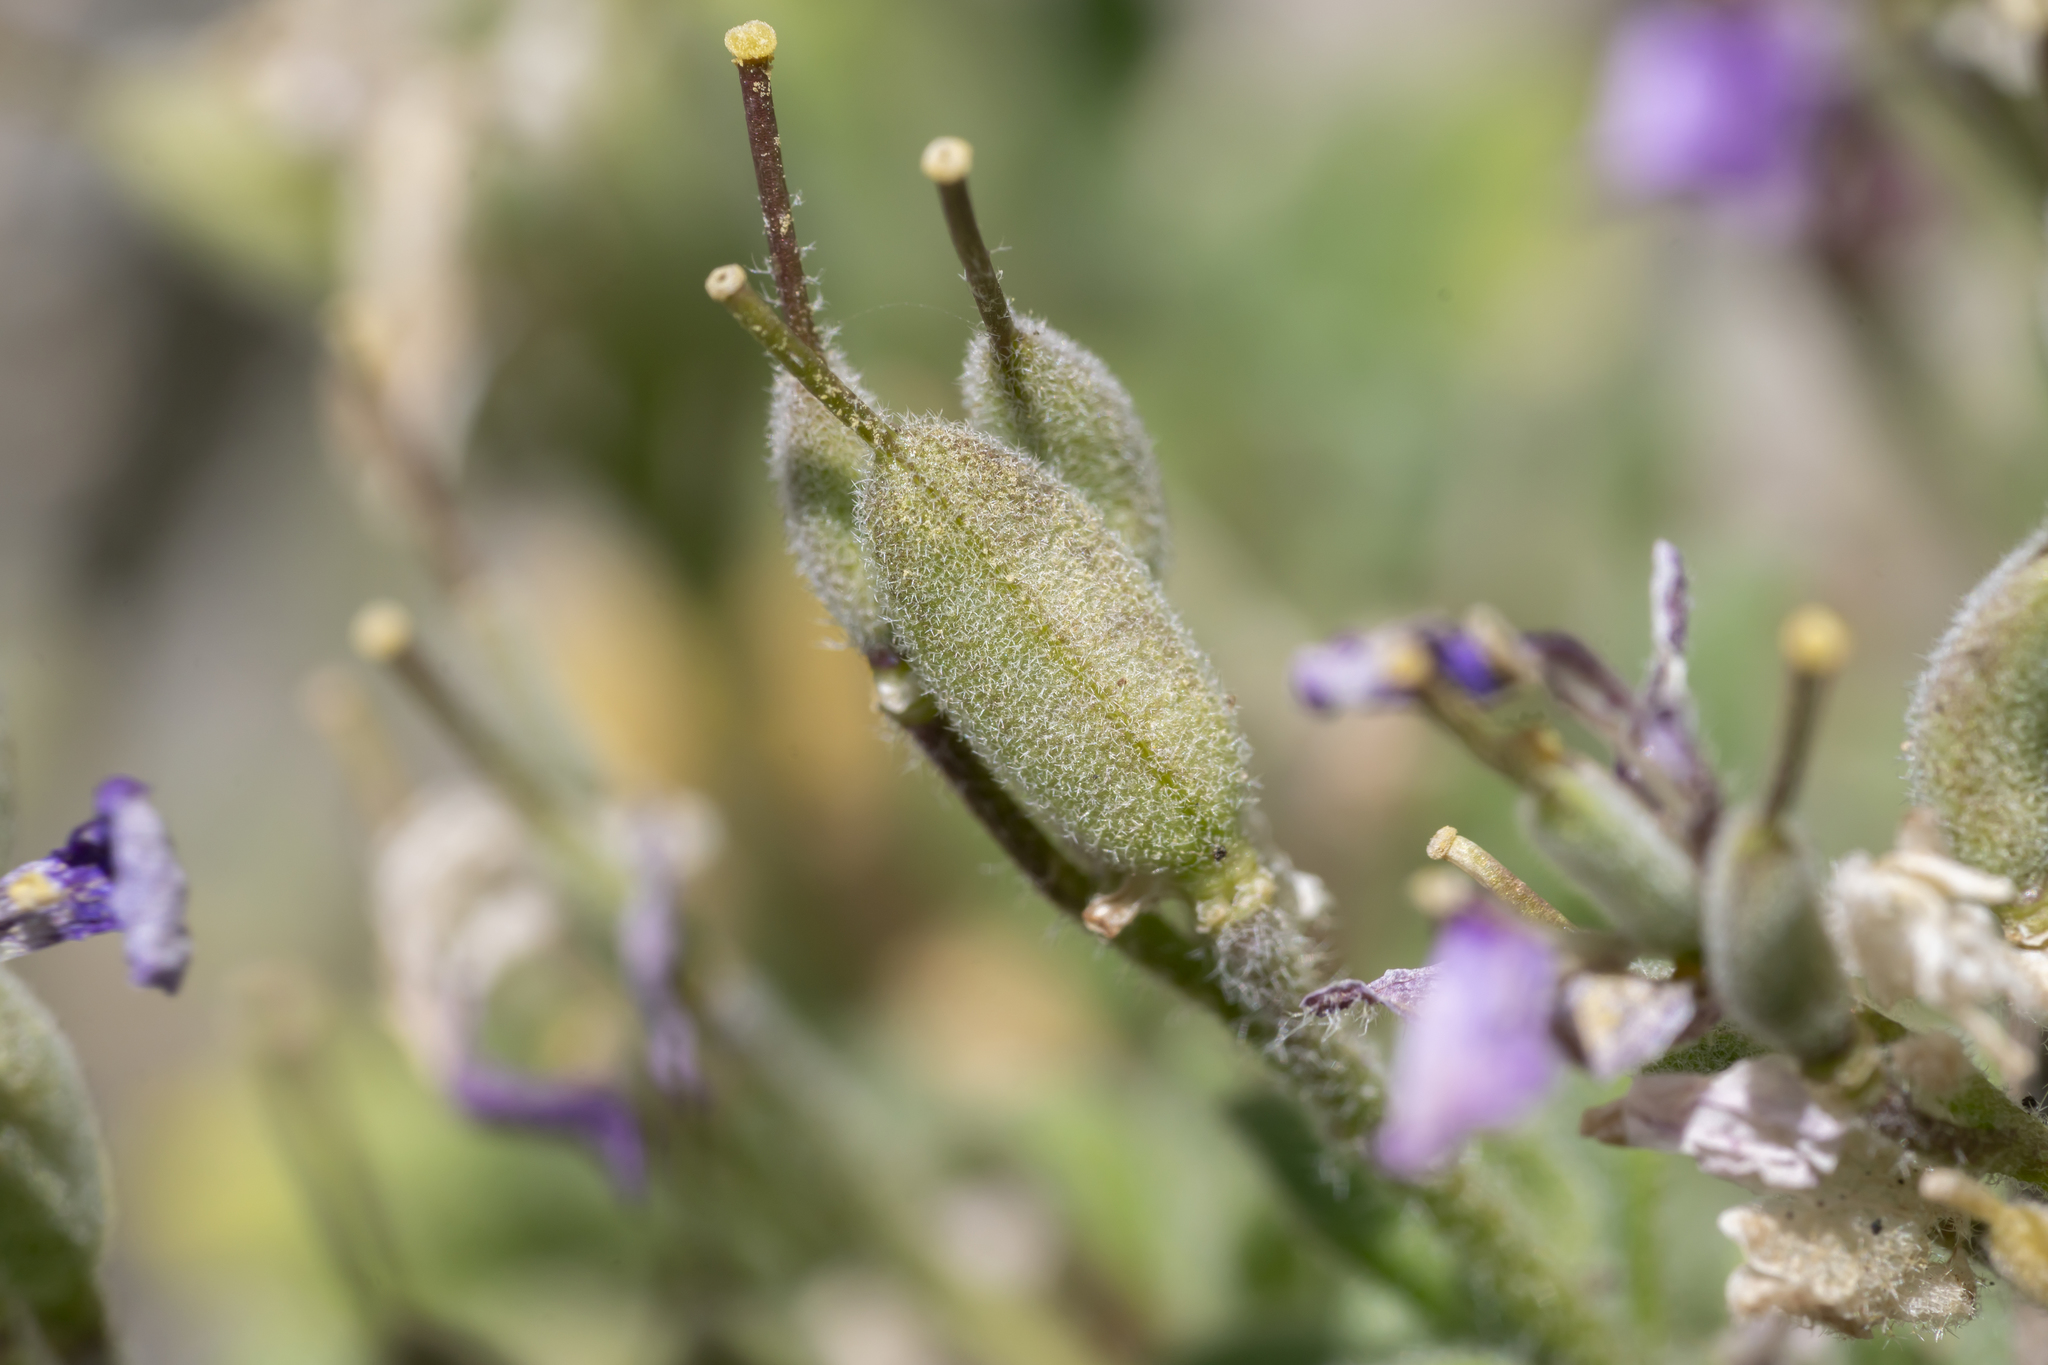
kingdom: Plantae
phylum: Tracheophyta
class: Magnoliopsida
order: Brassicales
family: Brassicaceae
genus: Aubrieta
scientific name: Aubrieta deltoidea
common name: Aubretia
